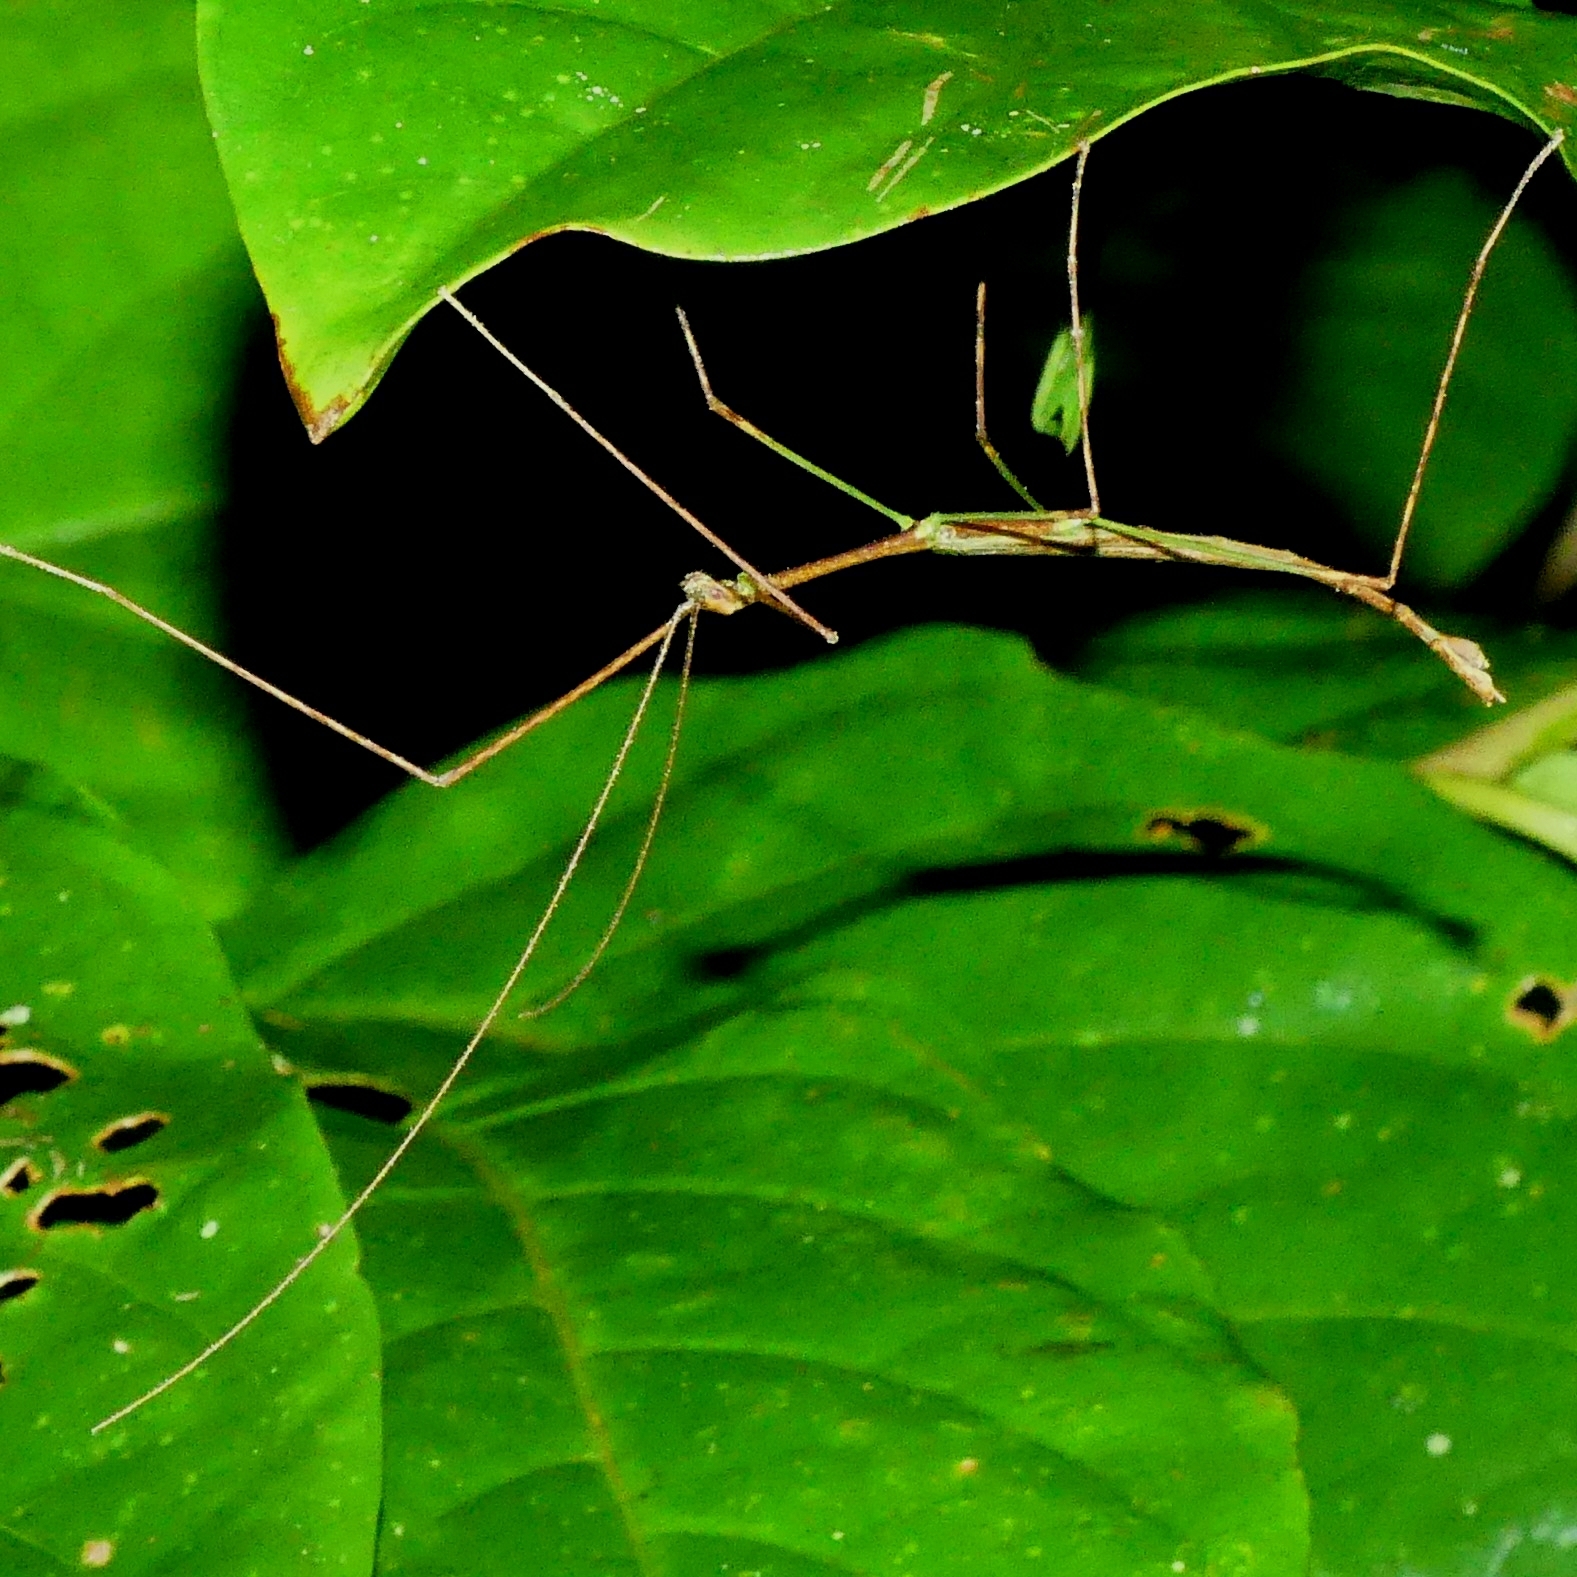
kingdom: Animalia
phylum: Arthropoda
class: Insecta
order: Phasmida
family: Diapheromeridae
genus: Phantasca
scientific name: Phantasca
